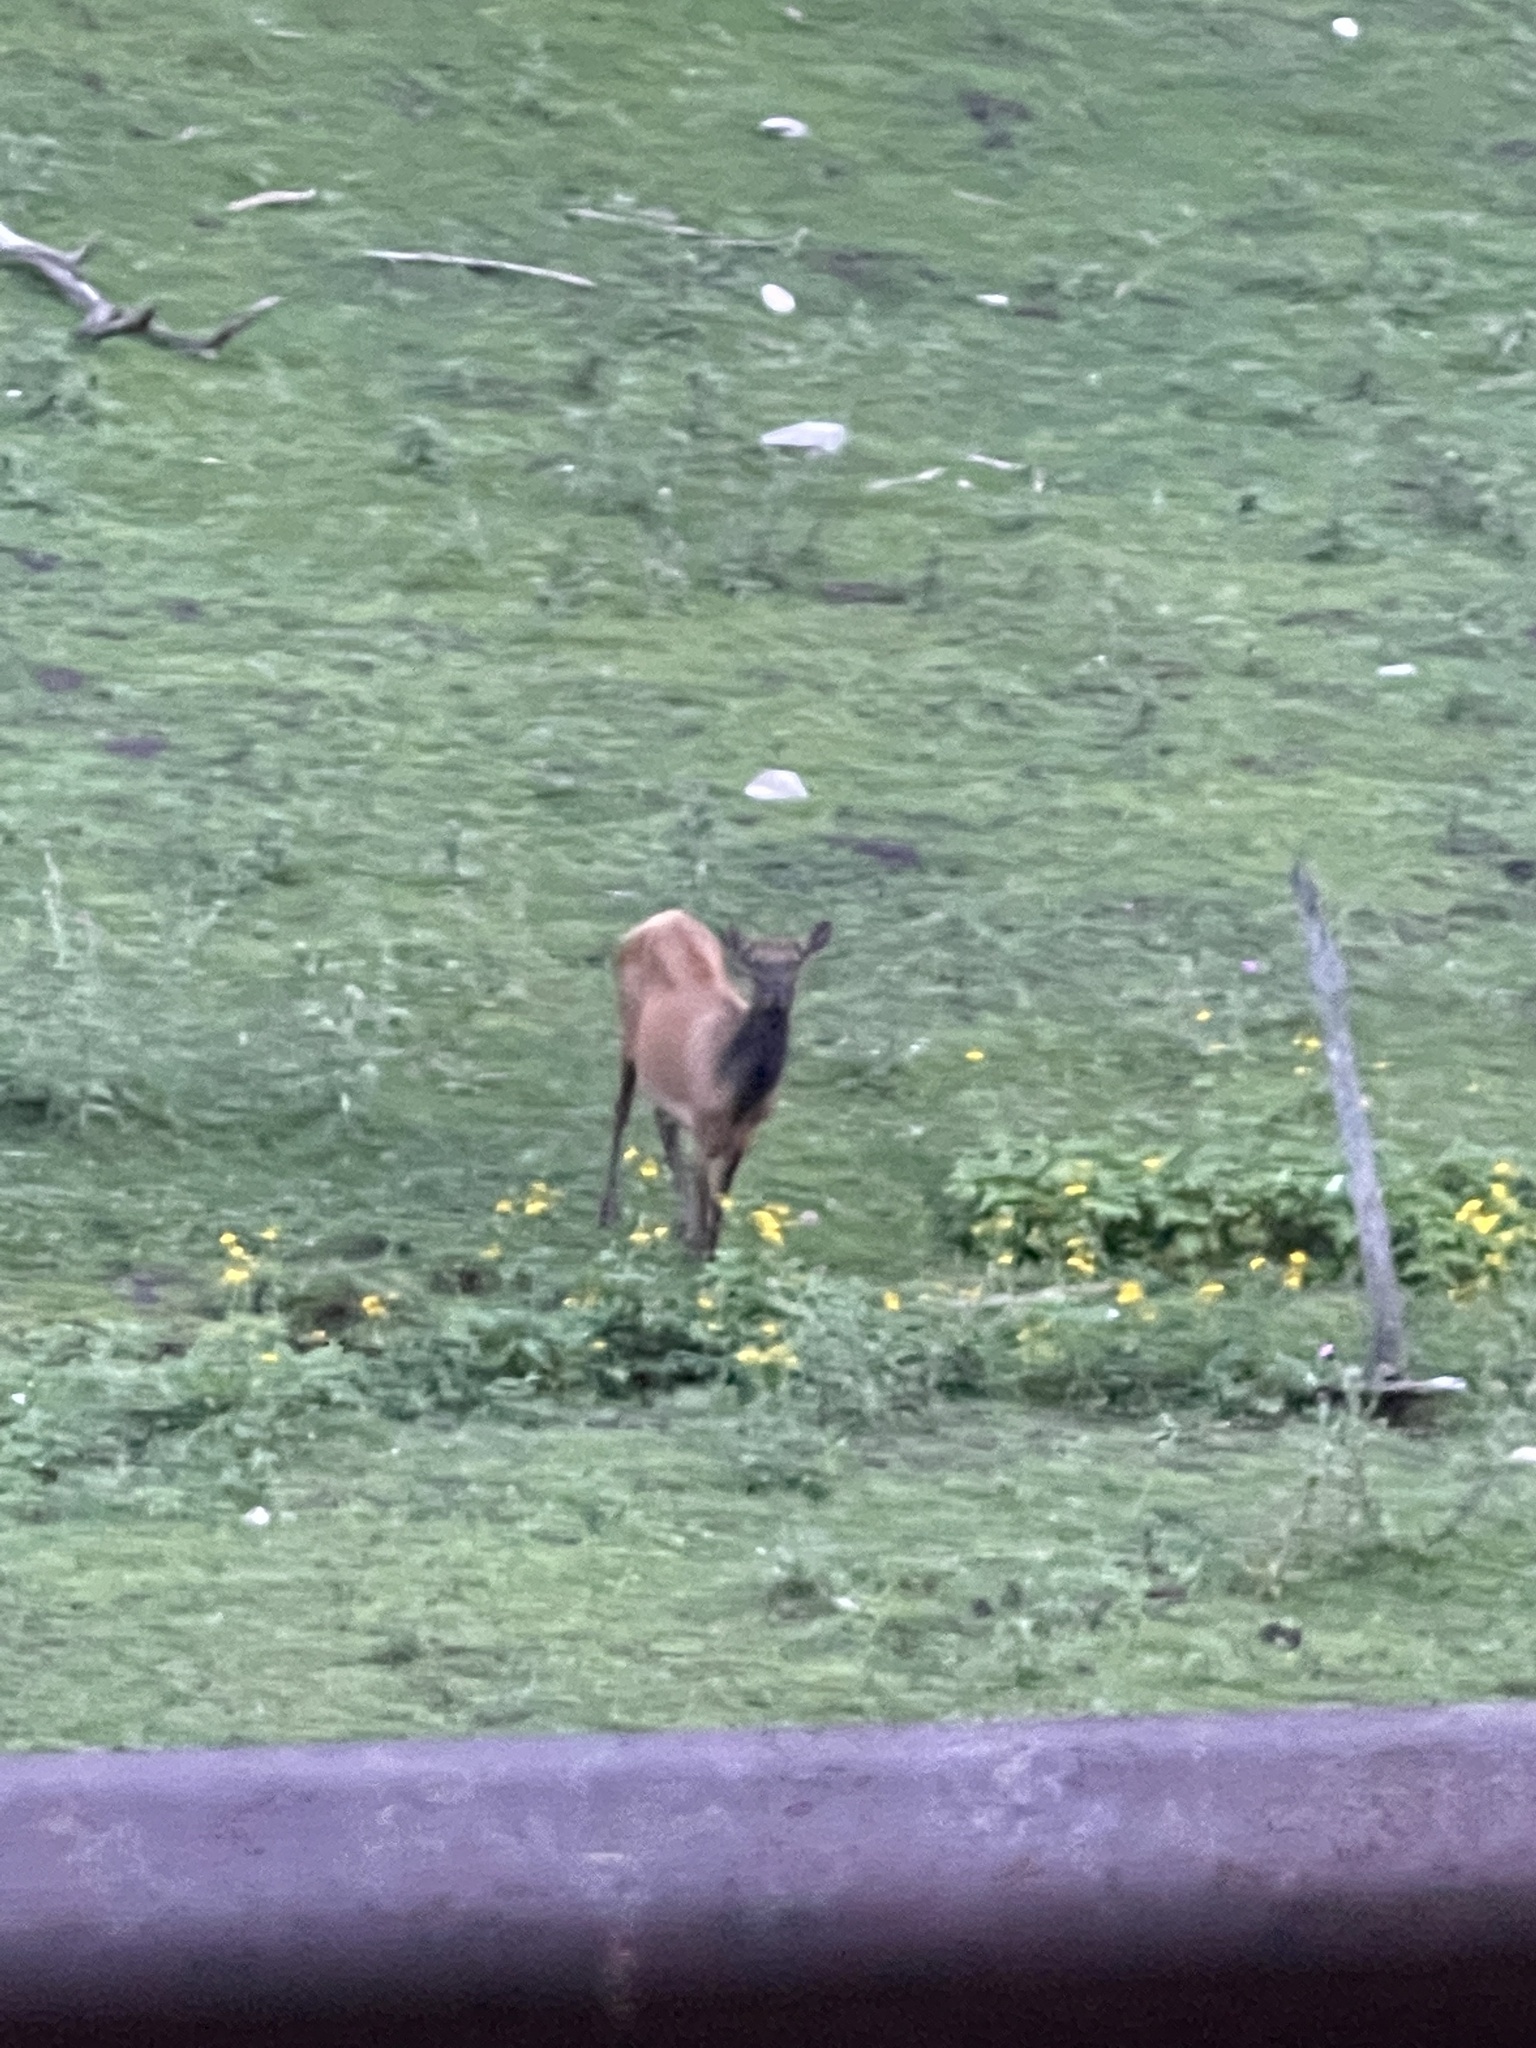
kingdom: Animalia
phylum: Chordata
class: Mammalia
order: Artiodactyla
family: Cervidae
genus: Cervus
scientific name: Cervus elaphus
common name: Red deer
